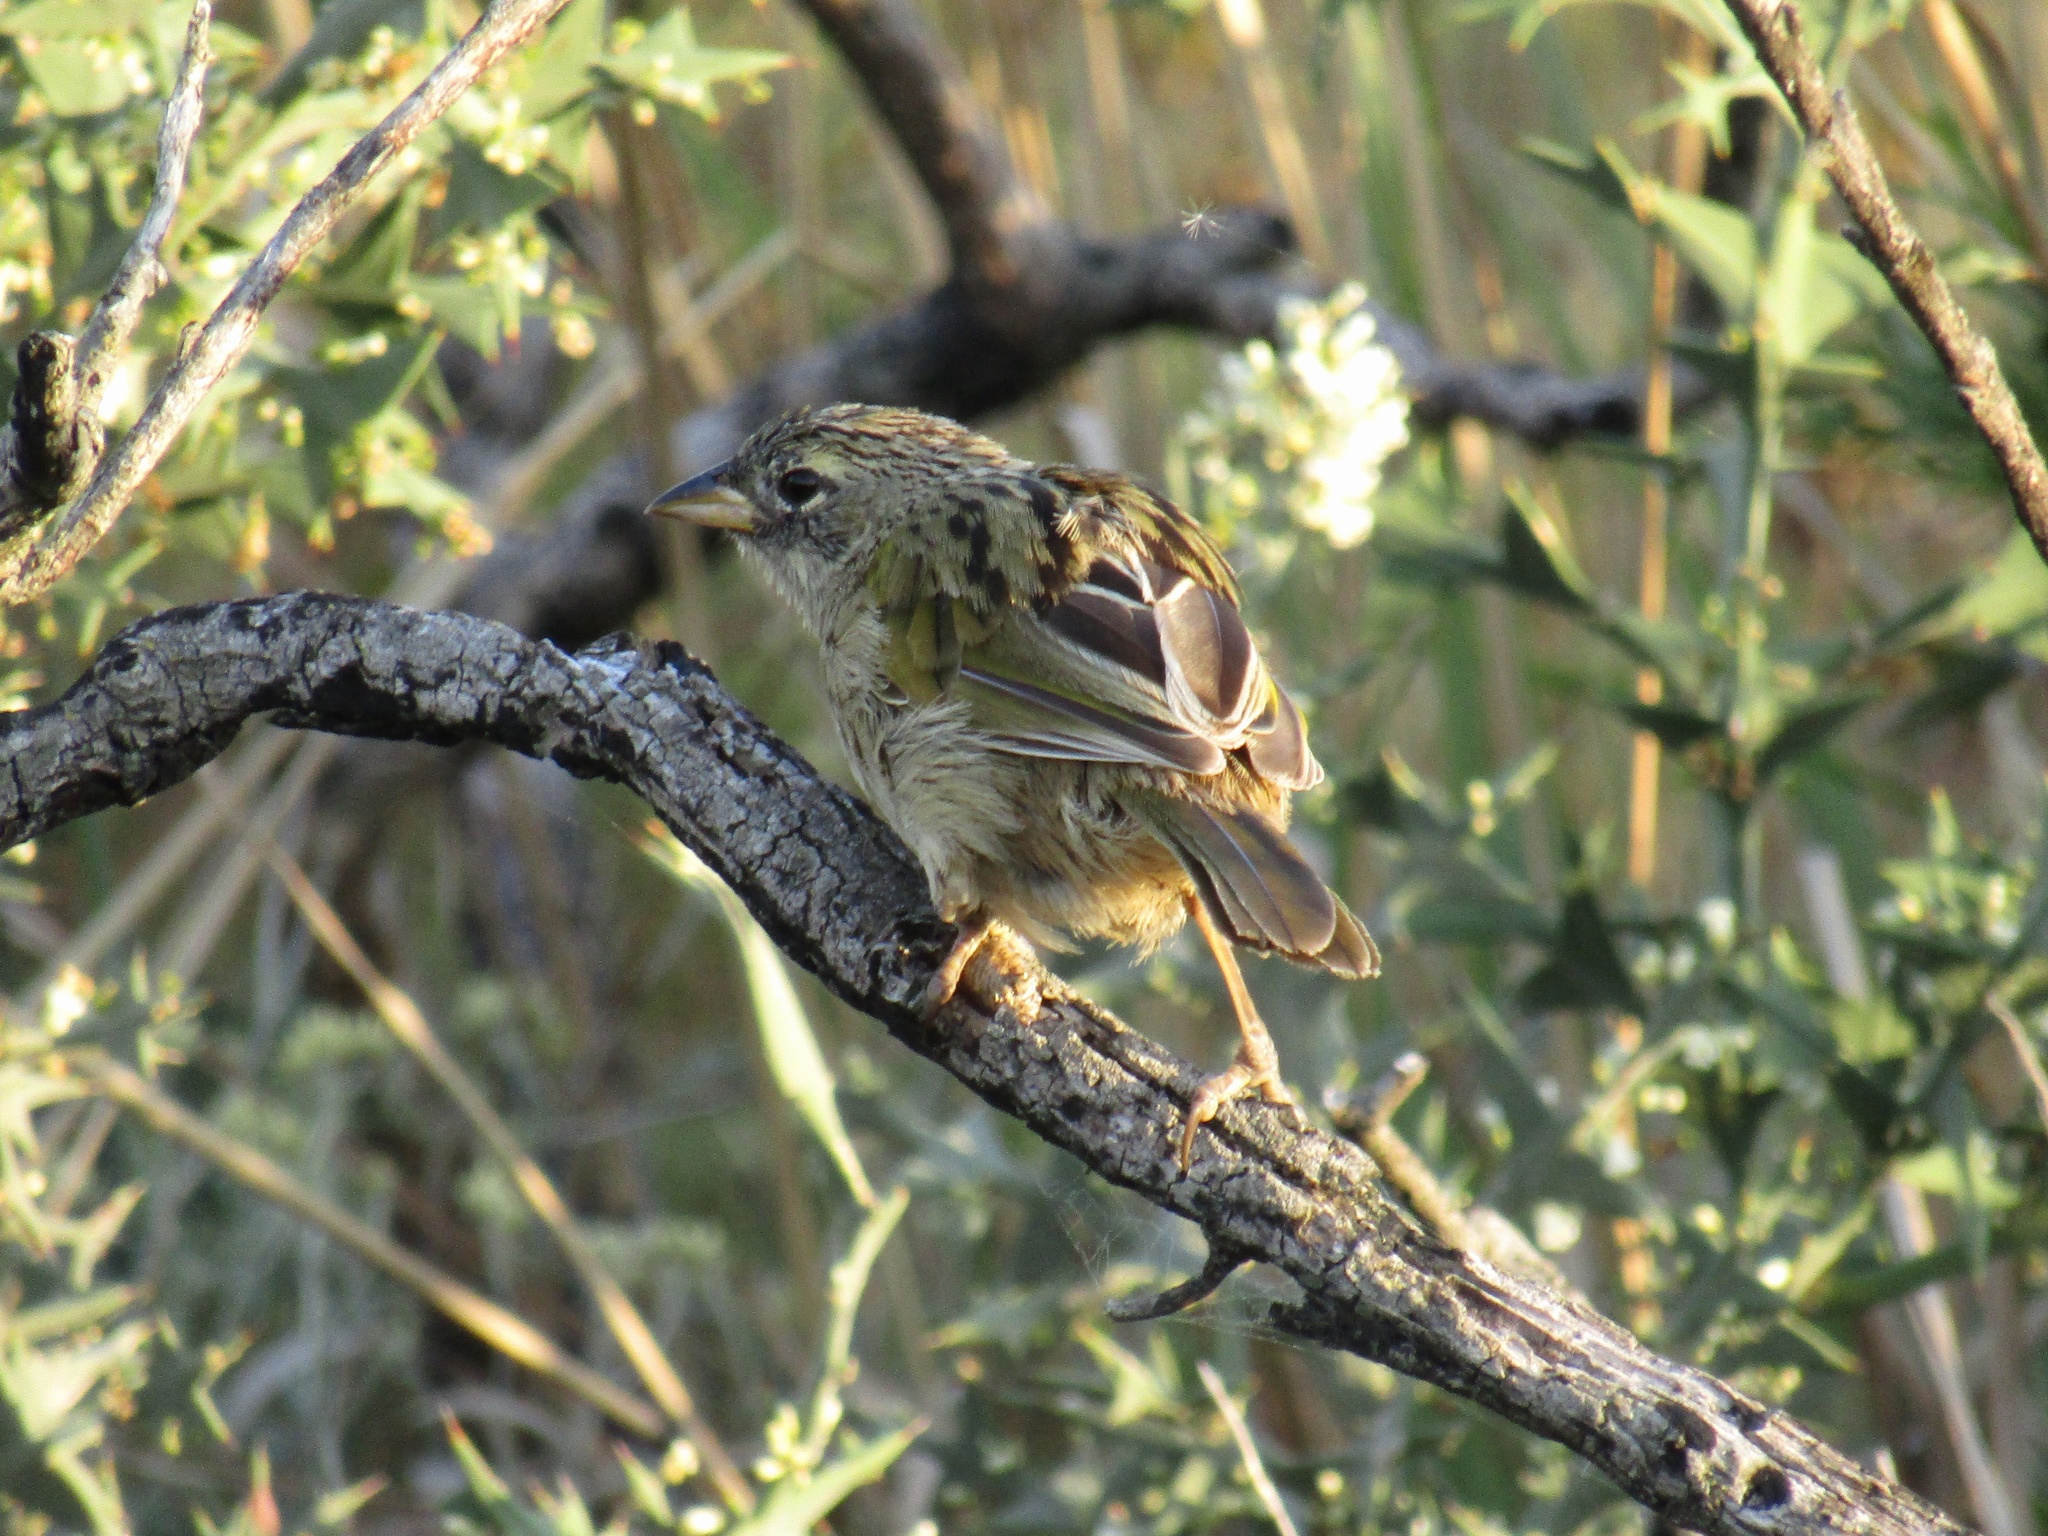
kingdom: Animalia
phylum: Chordata
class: Aves
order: Passeriformes
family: Thraupidae
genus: Embernagra
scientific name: Embernagra platensis
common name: Pampa finch
